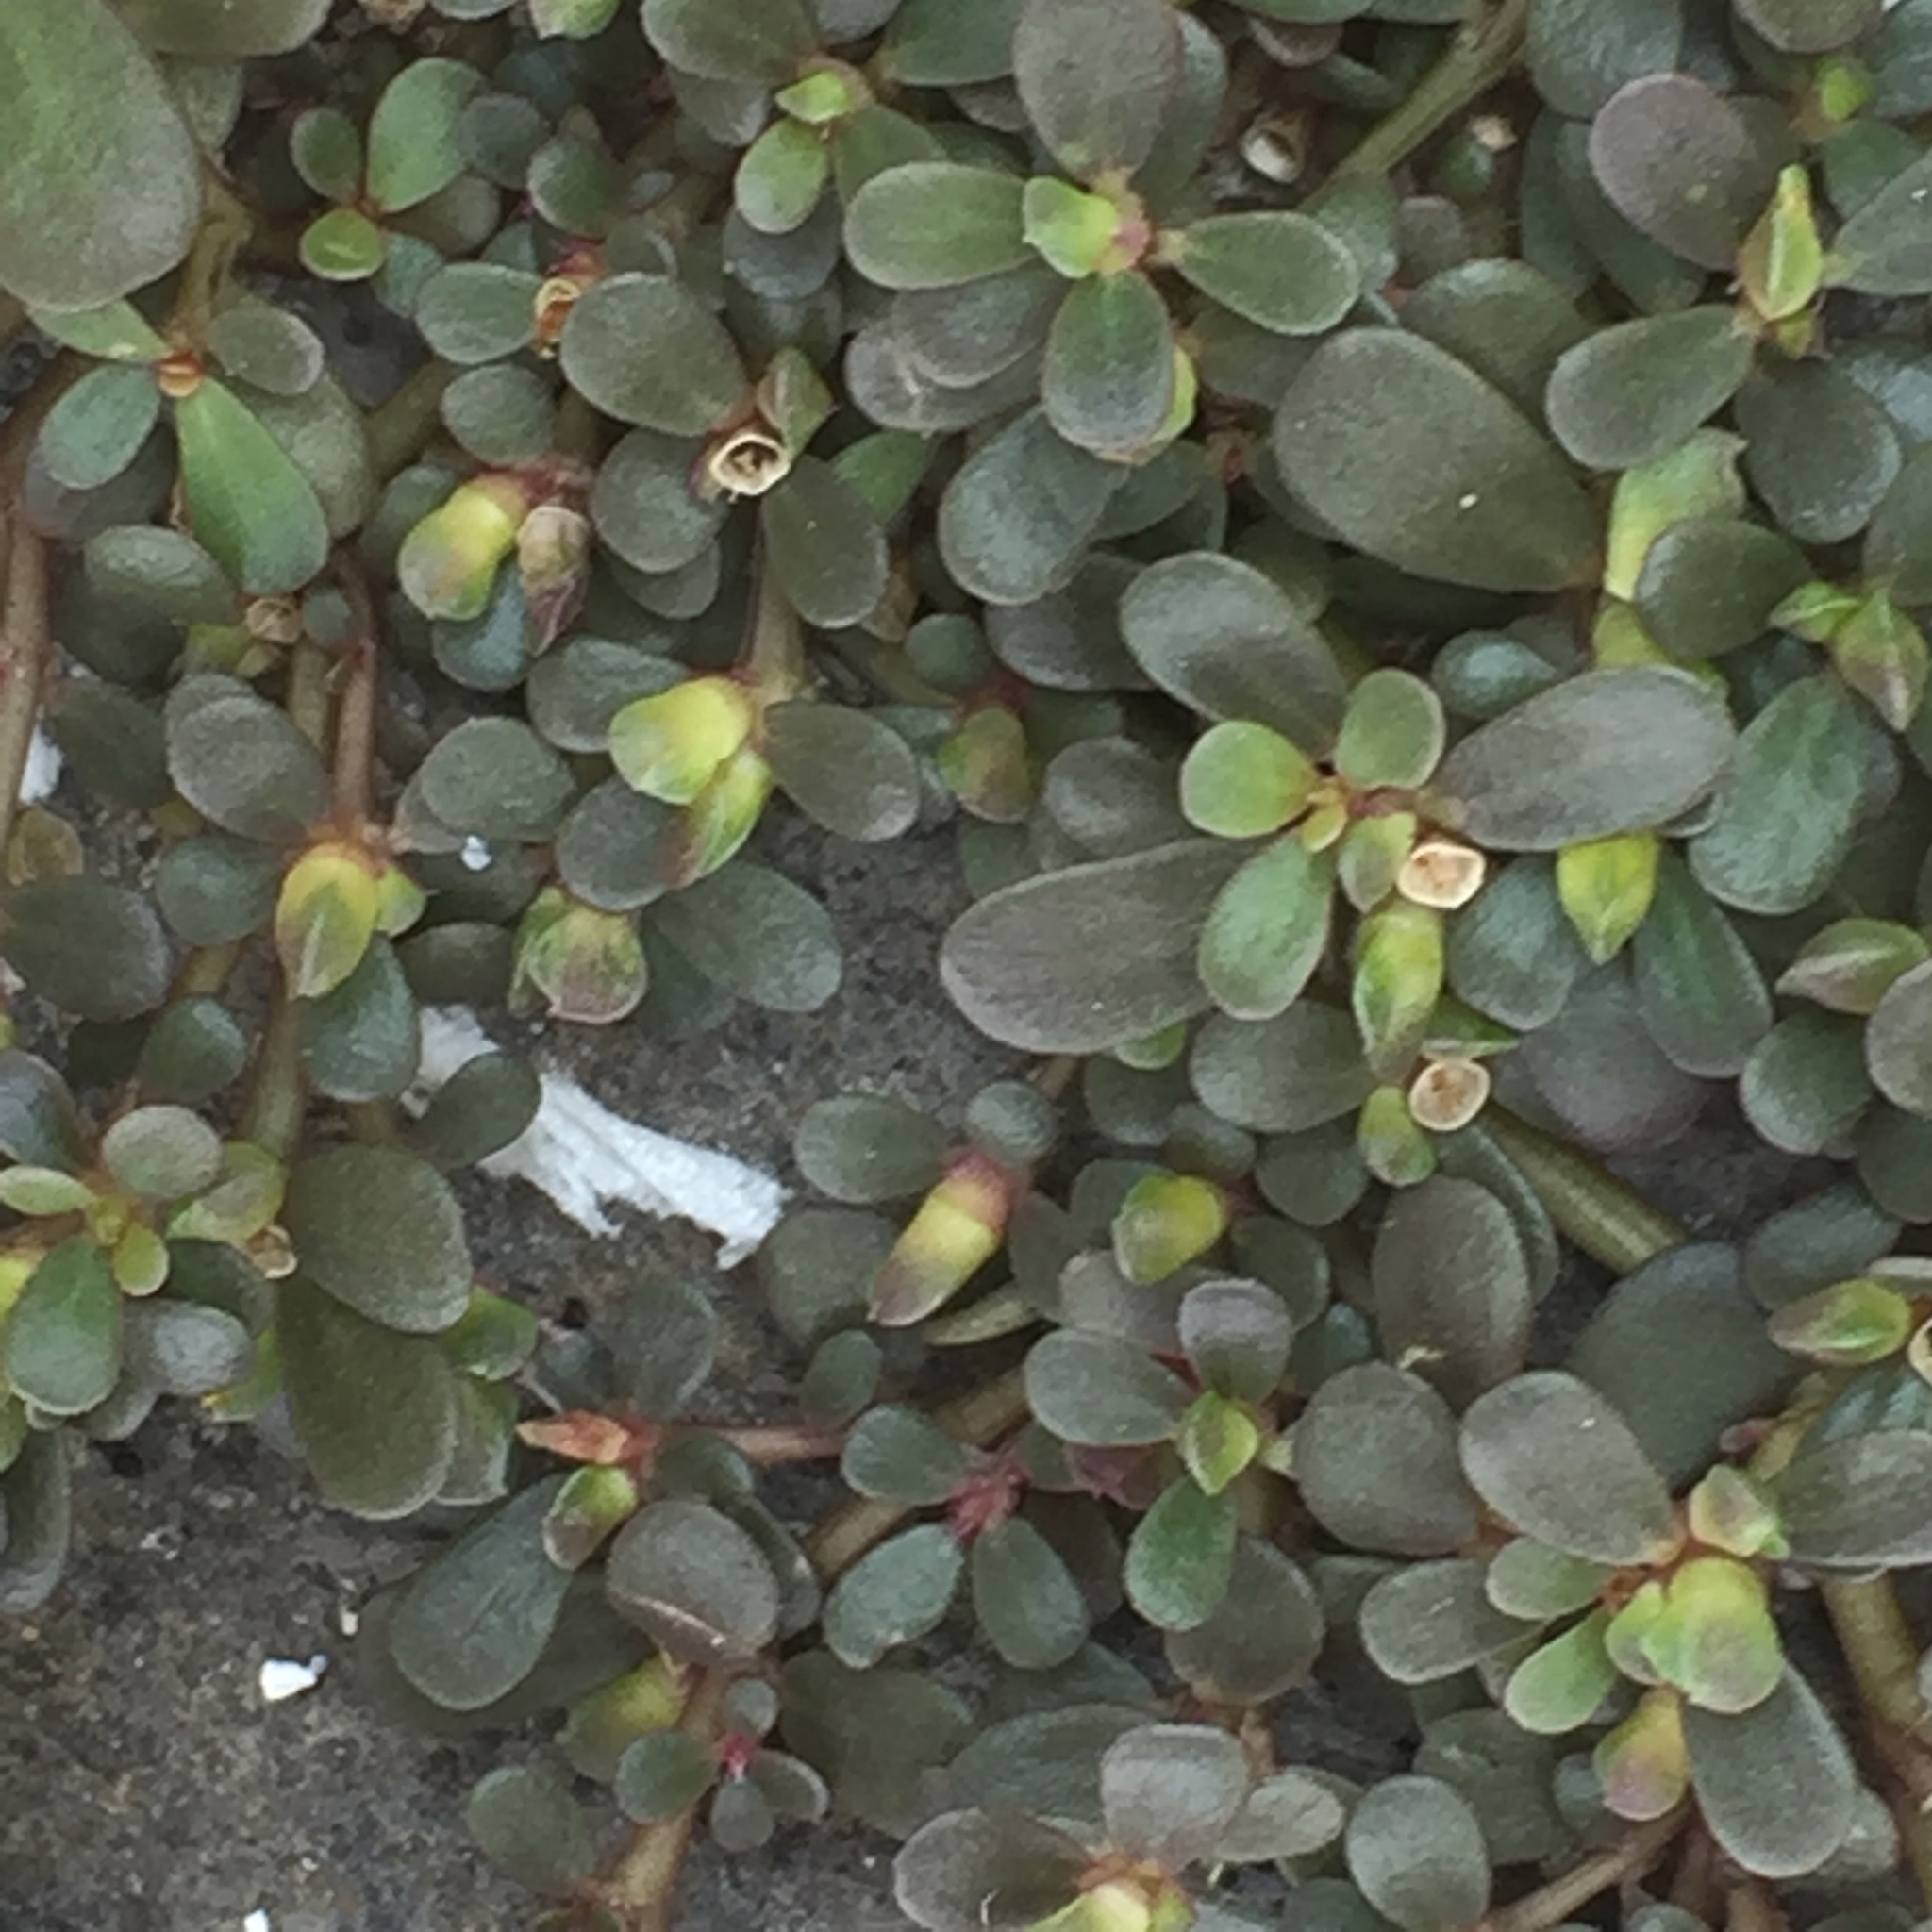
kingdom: Plantae
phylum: Tracheophyta
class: Magnoliopsida
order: Caryophyllales
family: Portulacaceae
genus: Portulaca
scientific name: Portulaca oleracea
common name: Common purslane
